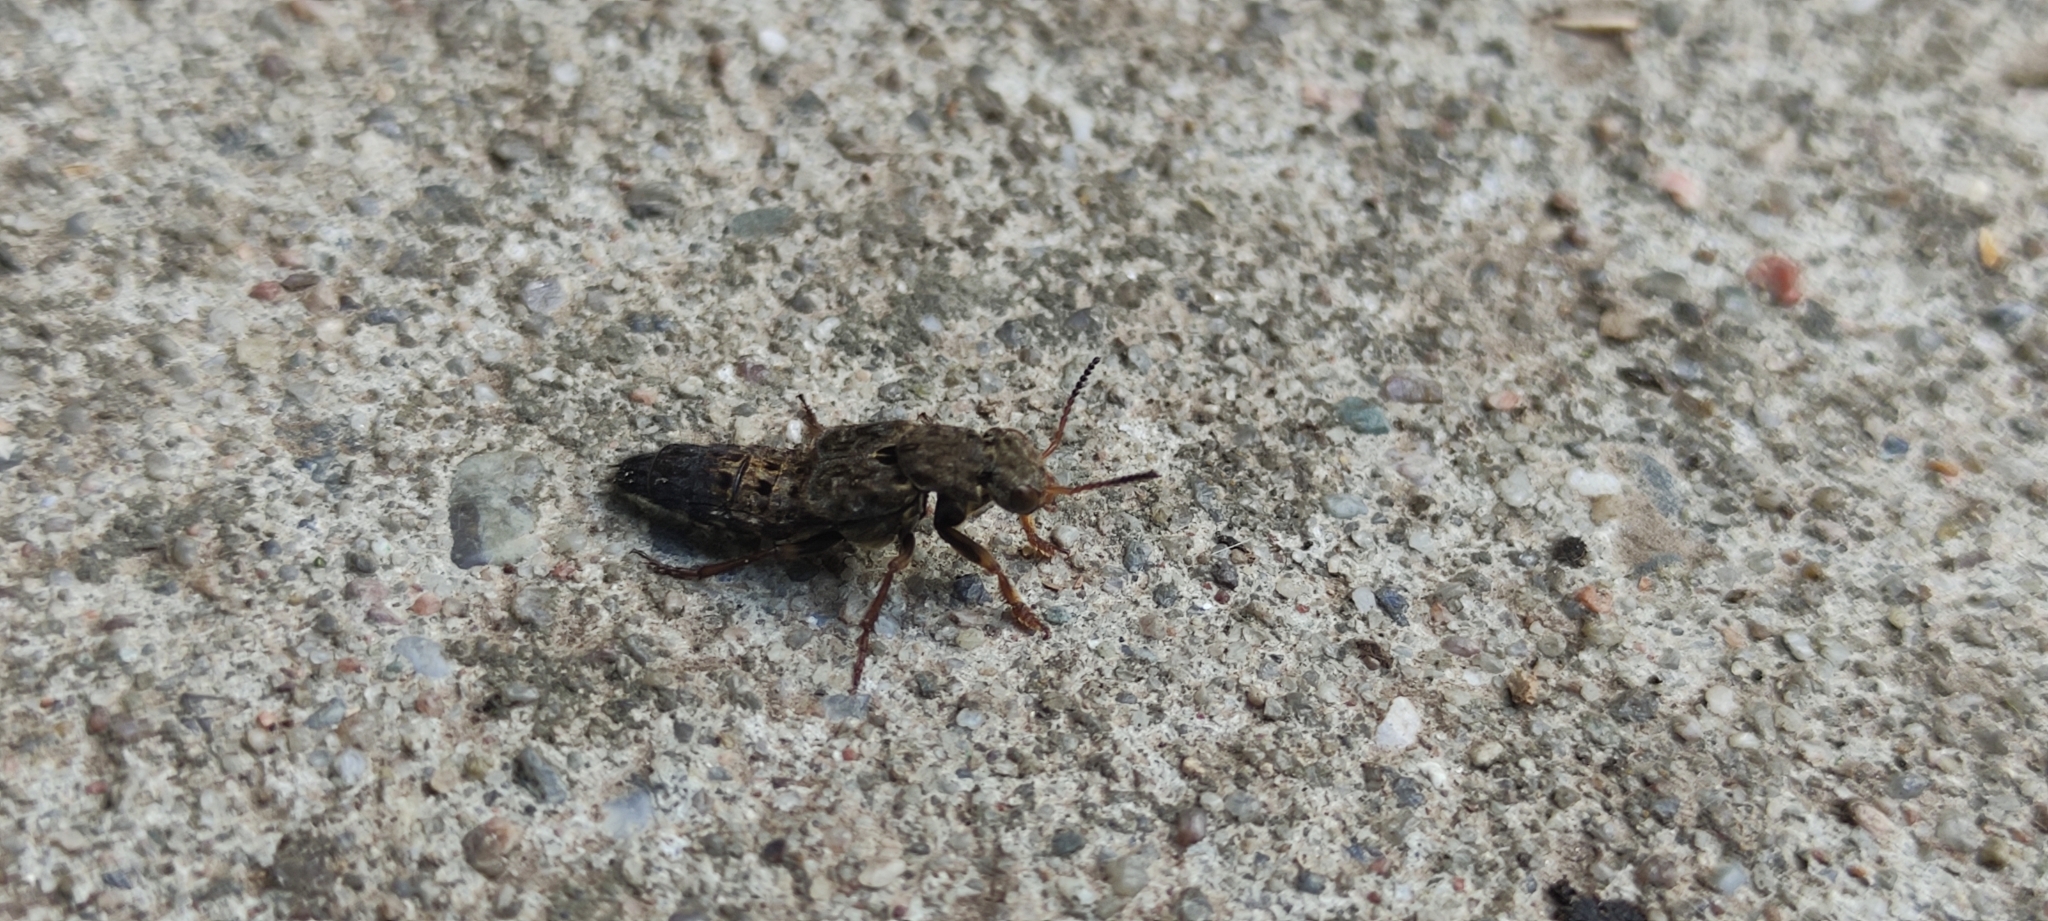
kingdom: Animalia
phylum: Arthropoda
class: Insecta
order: Coleoptera
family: Staphylinidae
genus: Ontholestes
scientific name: Ontholestes tessellatus
